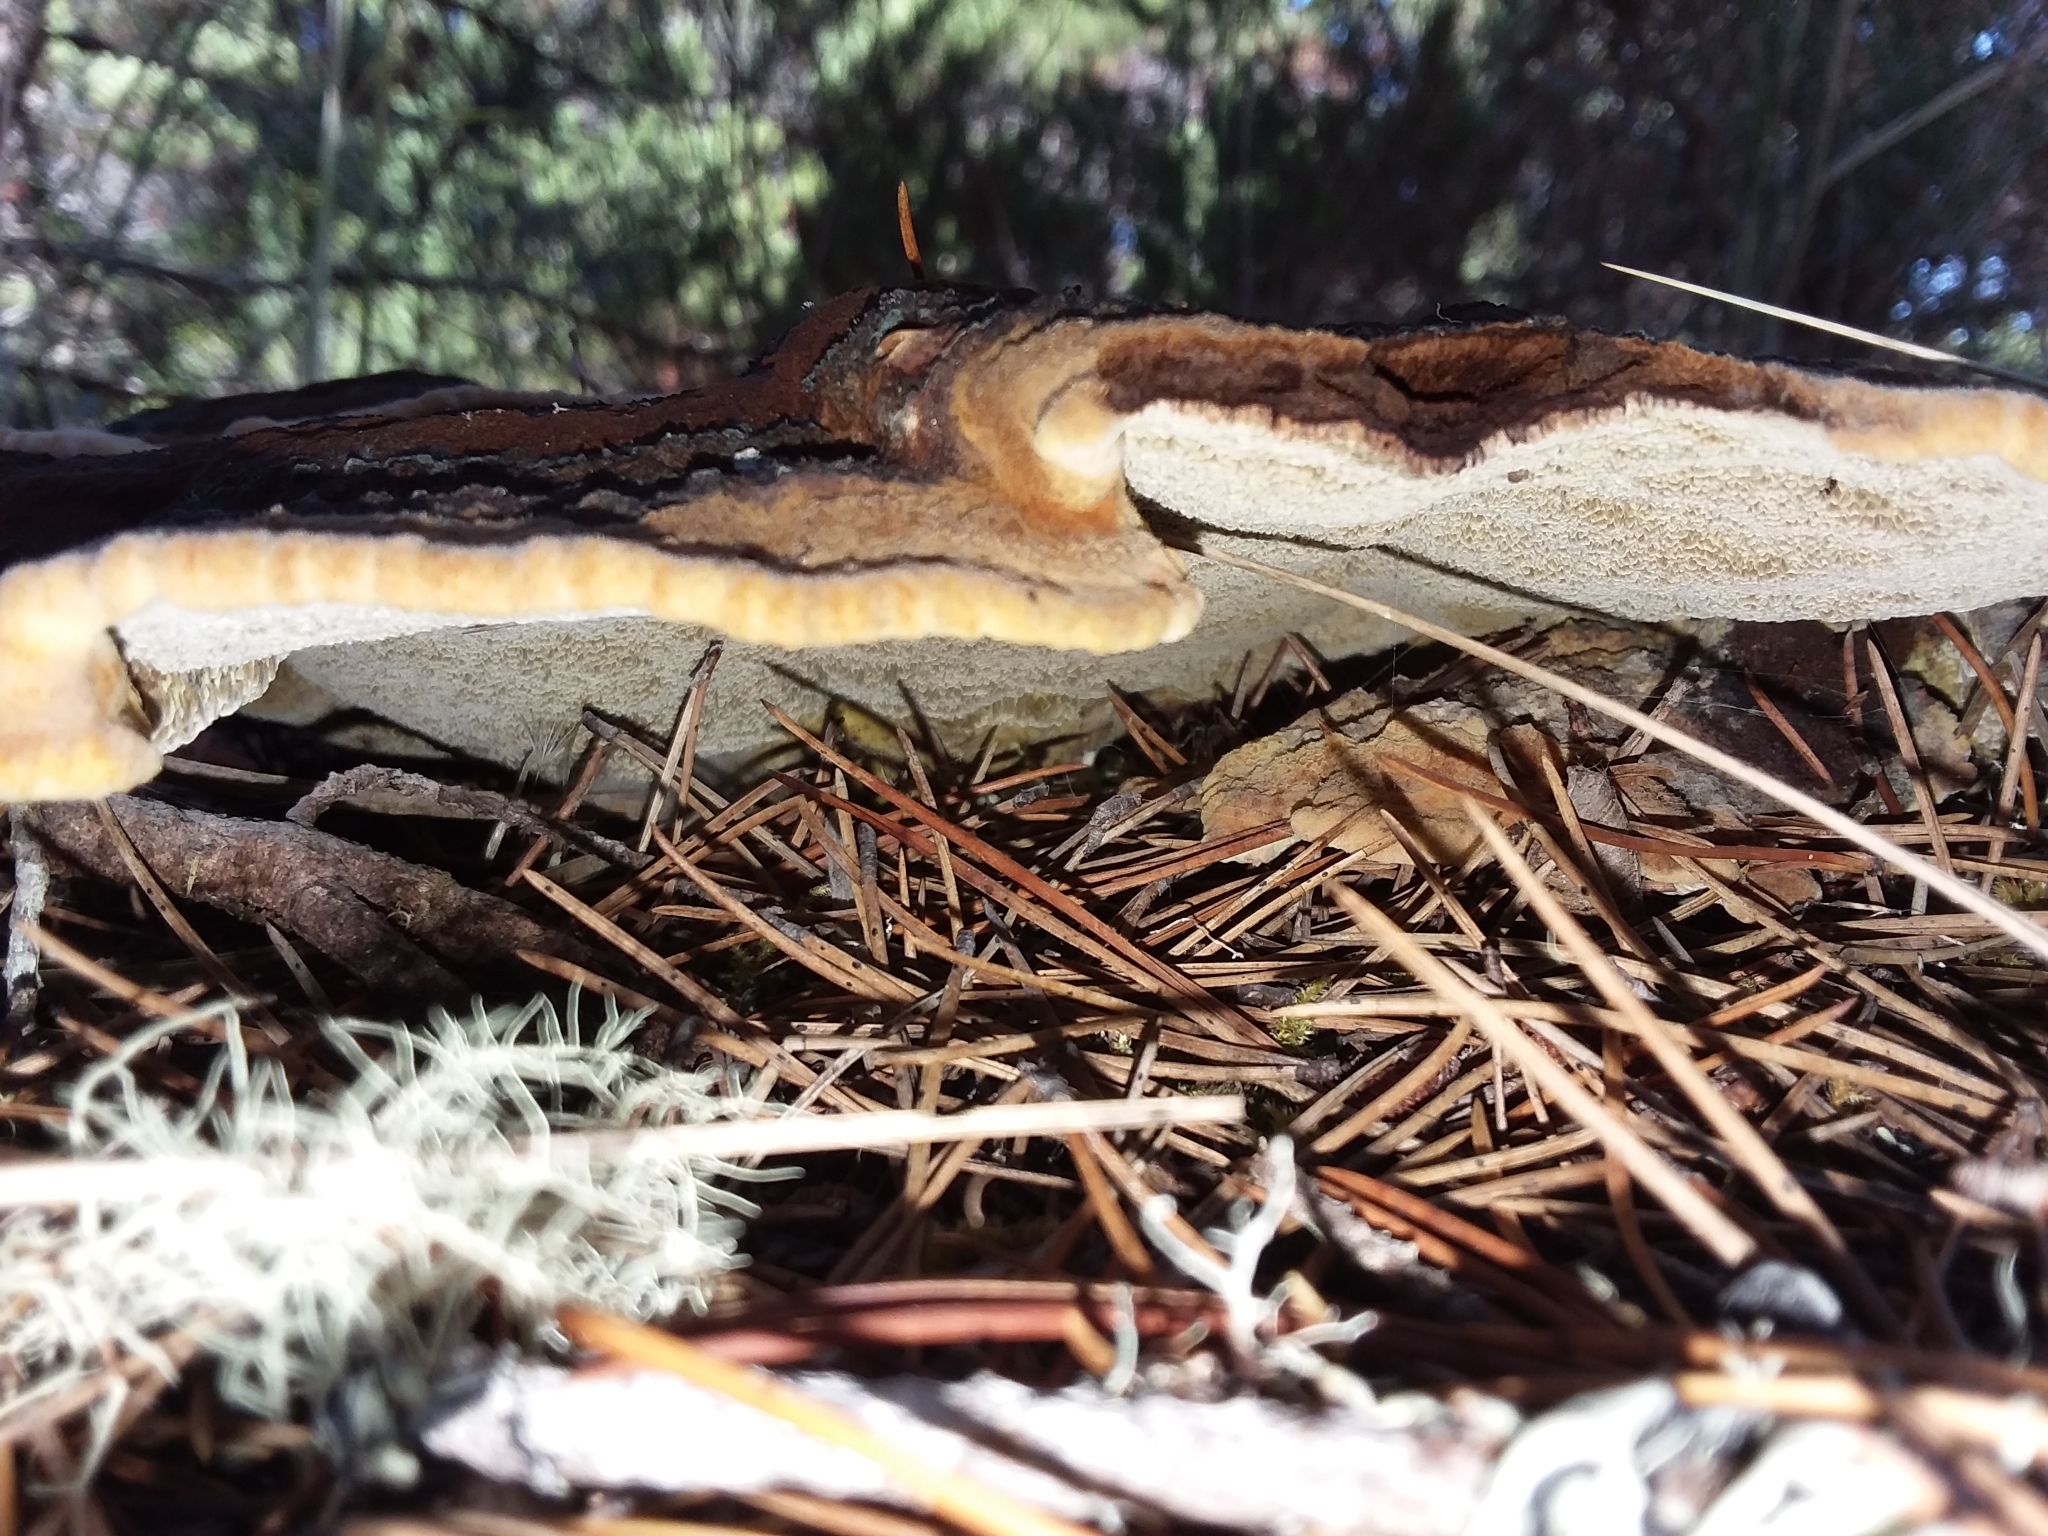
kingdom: Fungi
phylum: Basidiomycota
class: Agaricomycetes
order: Polyporales
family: Laetiporaceae
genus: Phaeolus
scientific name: Phaeolus schweinitzii
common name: Dyer's mazegill
